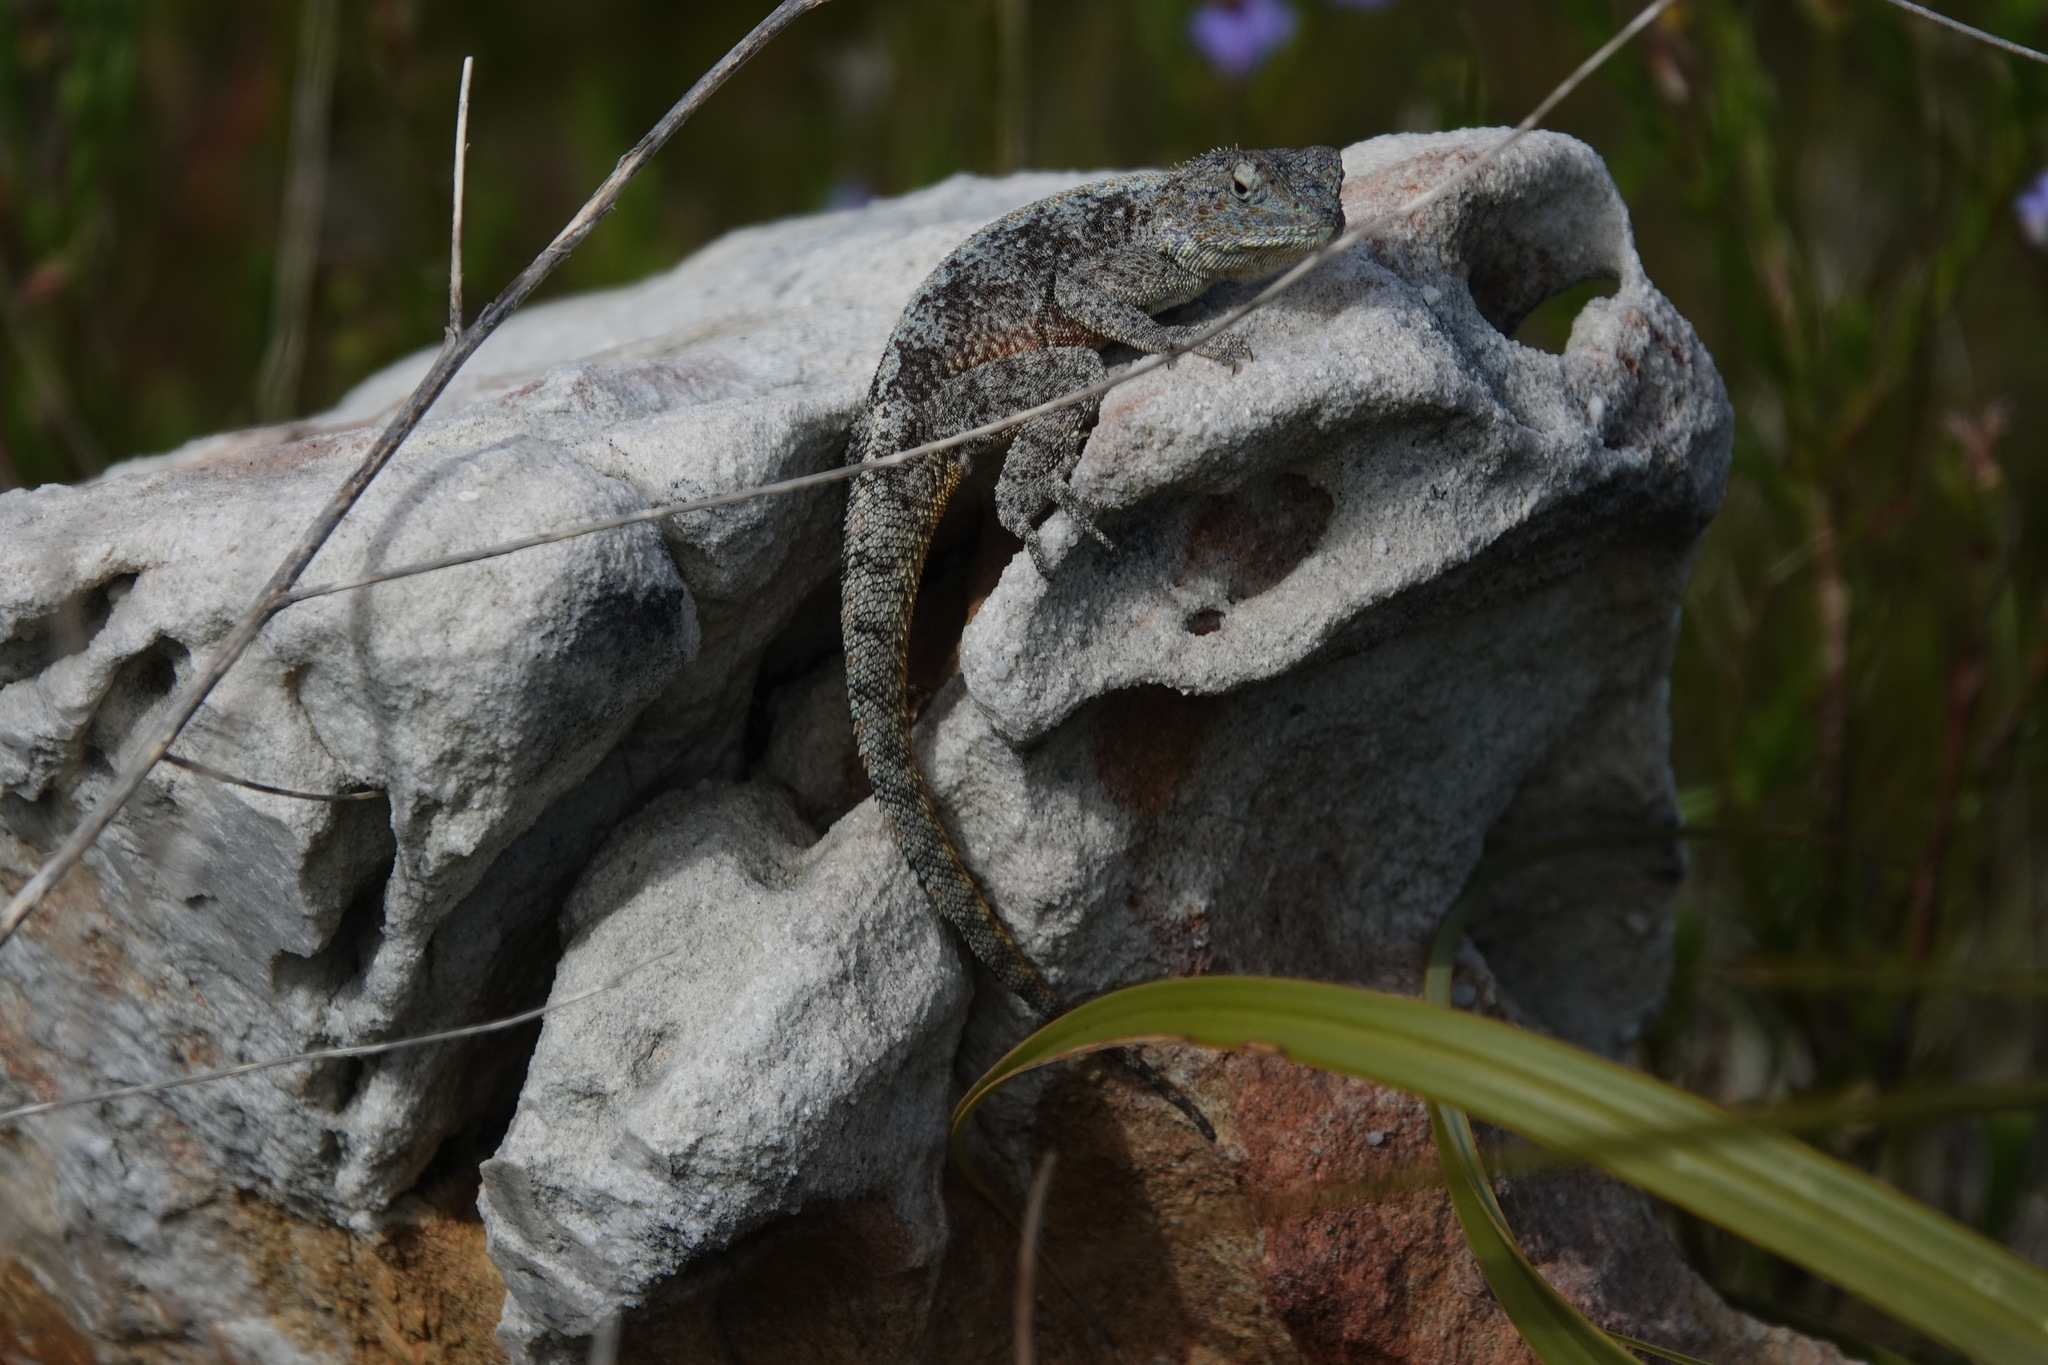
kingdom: Animalia
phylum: Chordata
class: Squamata
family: Agamidae
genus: Agama
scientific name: Agama atra
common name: Southern african rock agama
